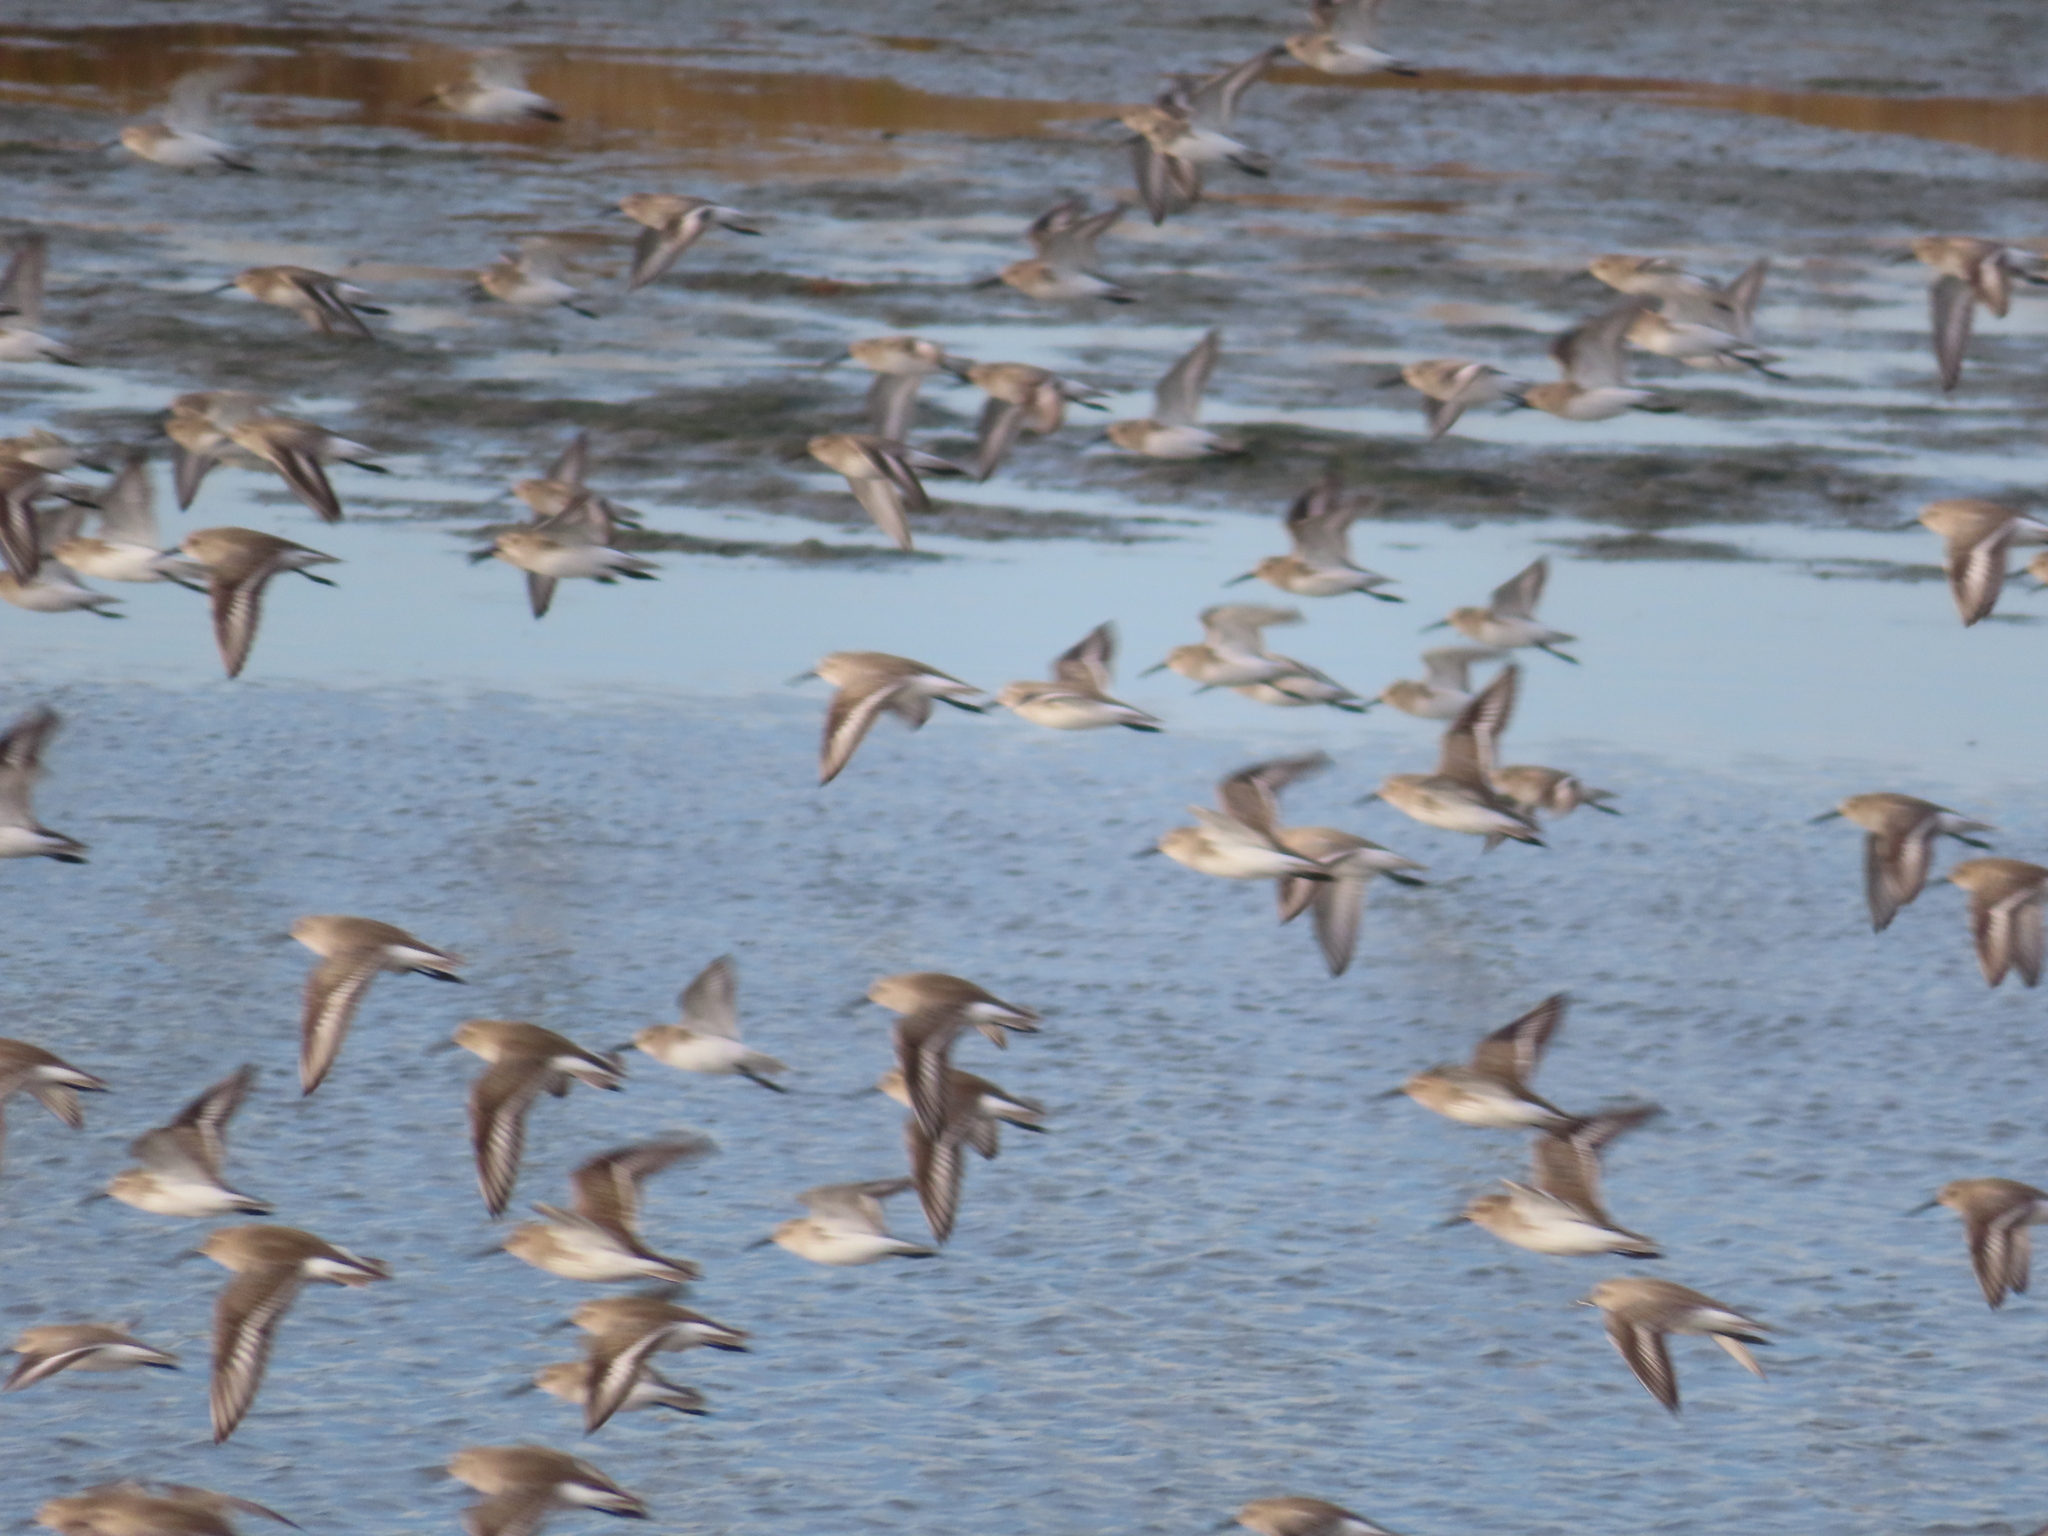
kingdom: Animalia
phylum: Chordata
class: Aves
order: Charadriiformes
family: Scolopacidae
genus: Calidris
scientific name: Calidris alpina
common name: Dunlin
